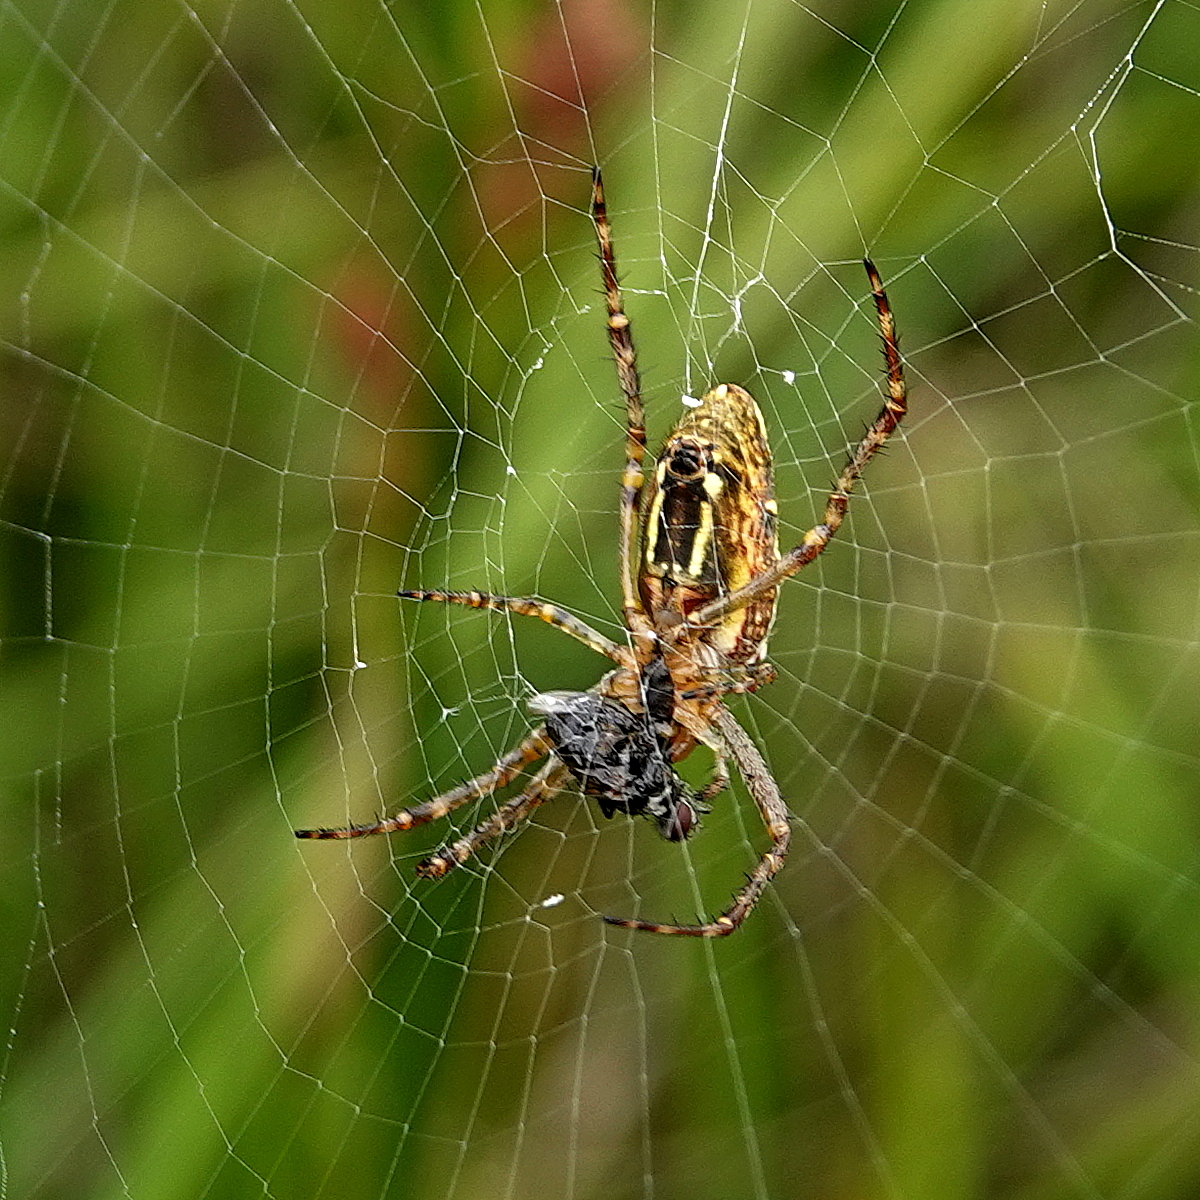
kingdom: Animalia
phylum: Arthropoda
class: Arachnida
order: Araneae
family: Araneidae
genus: Plebs
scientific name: Plebs bradleyi
